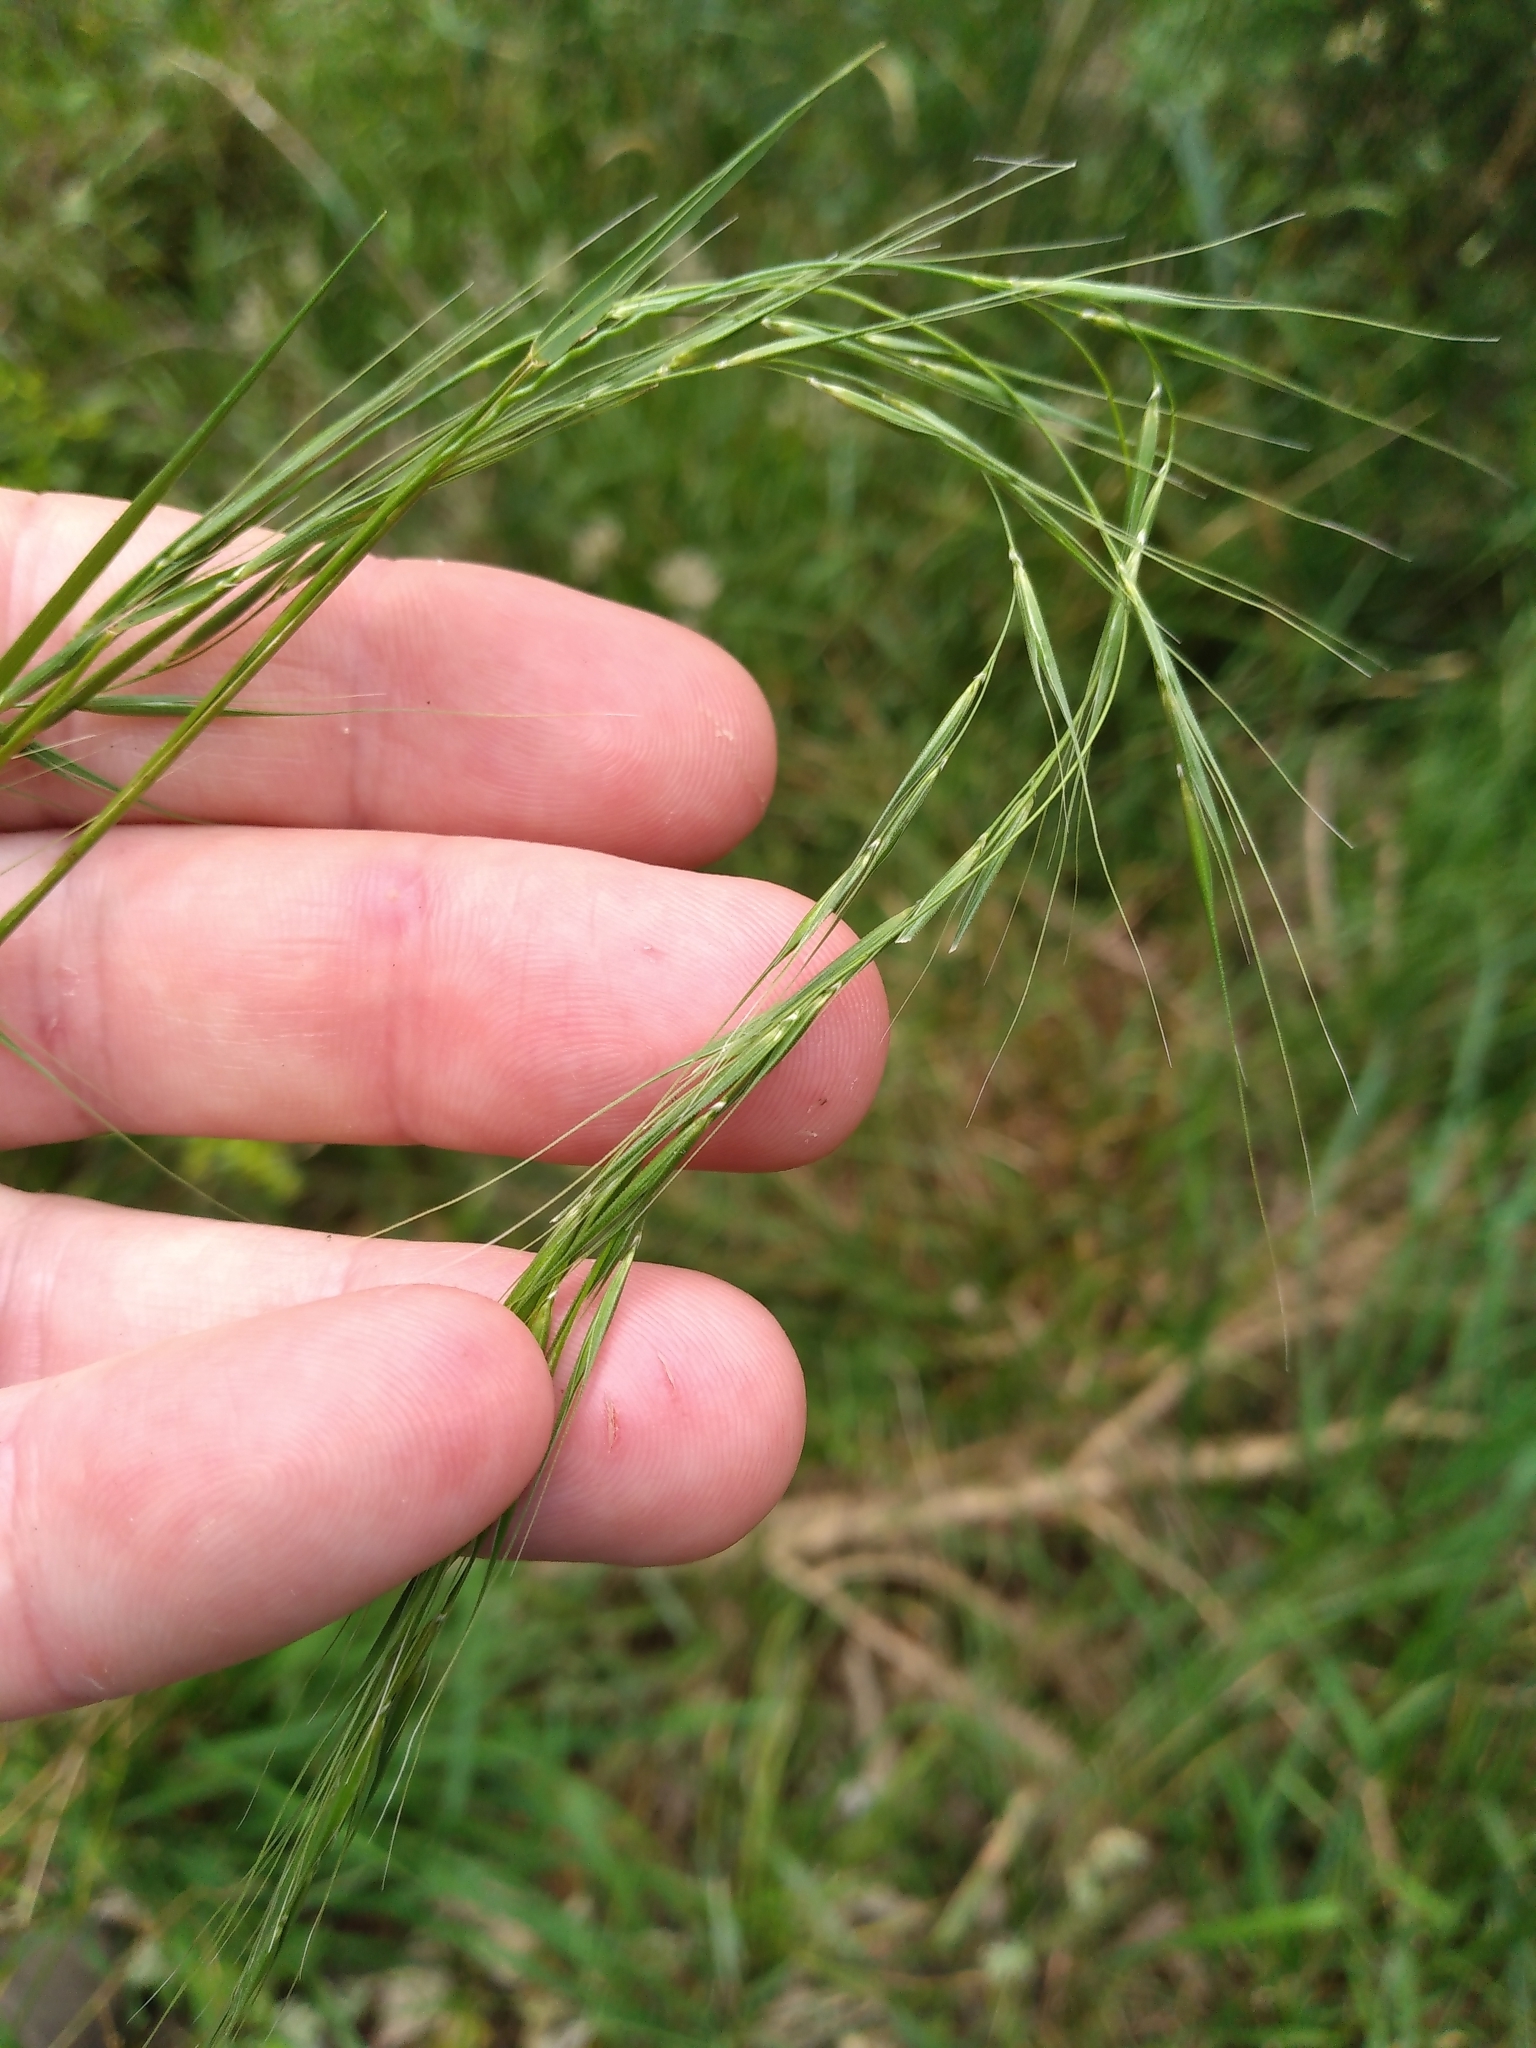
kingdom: Plantae
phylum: Tracheophyta
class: Liliopsida
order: Poales
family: Poaceae
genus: Microlaena
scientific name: Microlaena stipoides
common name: Meadow ricegrass
